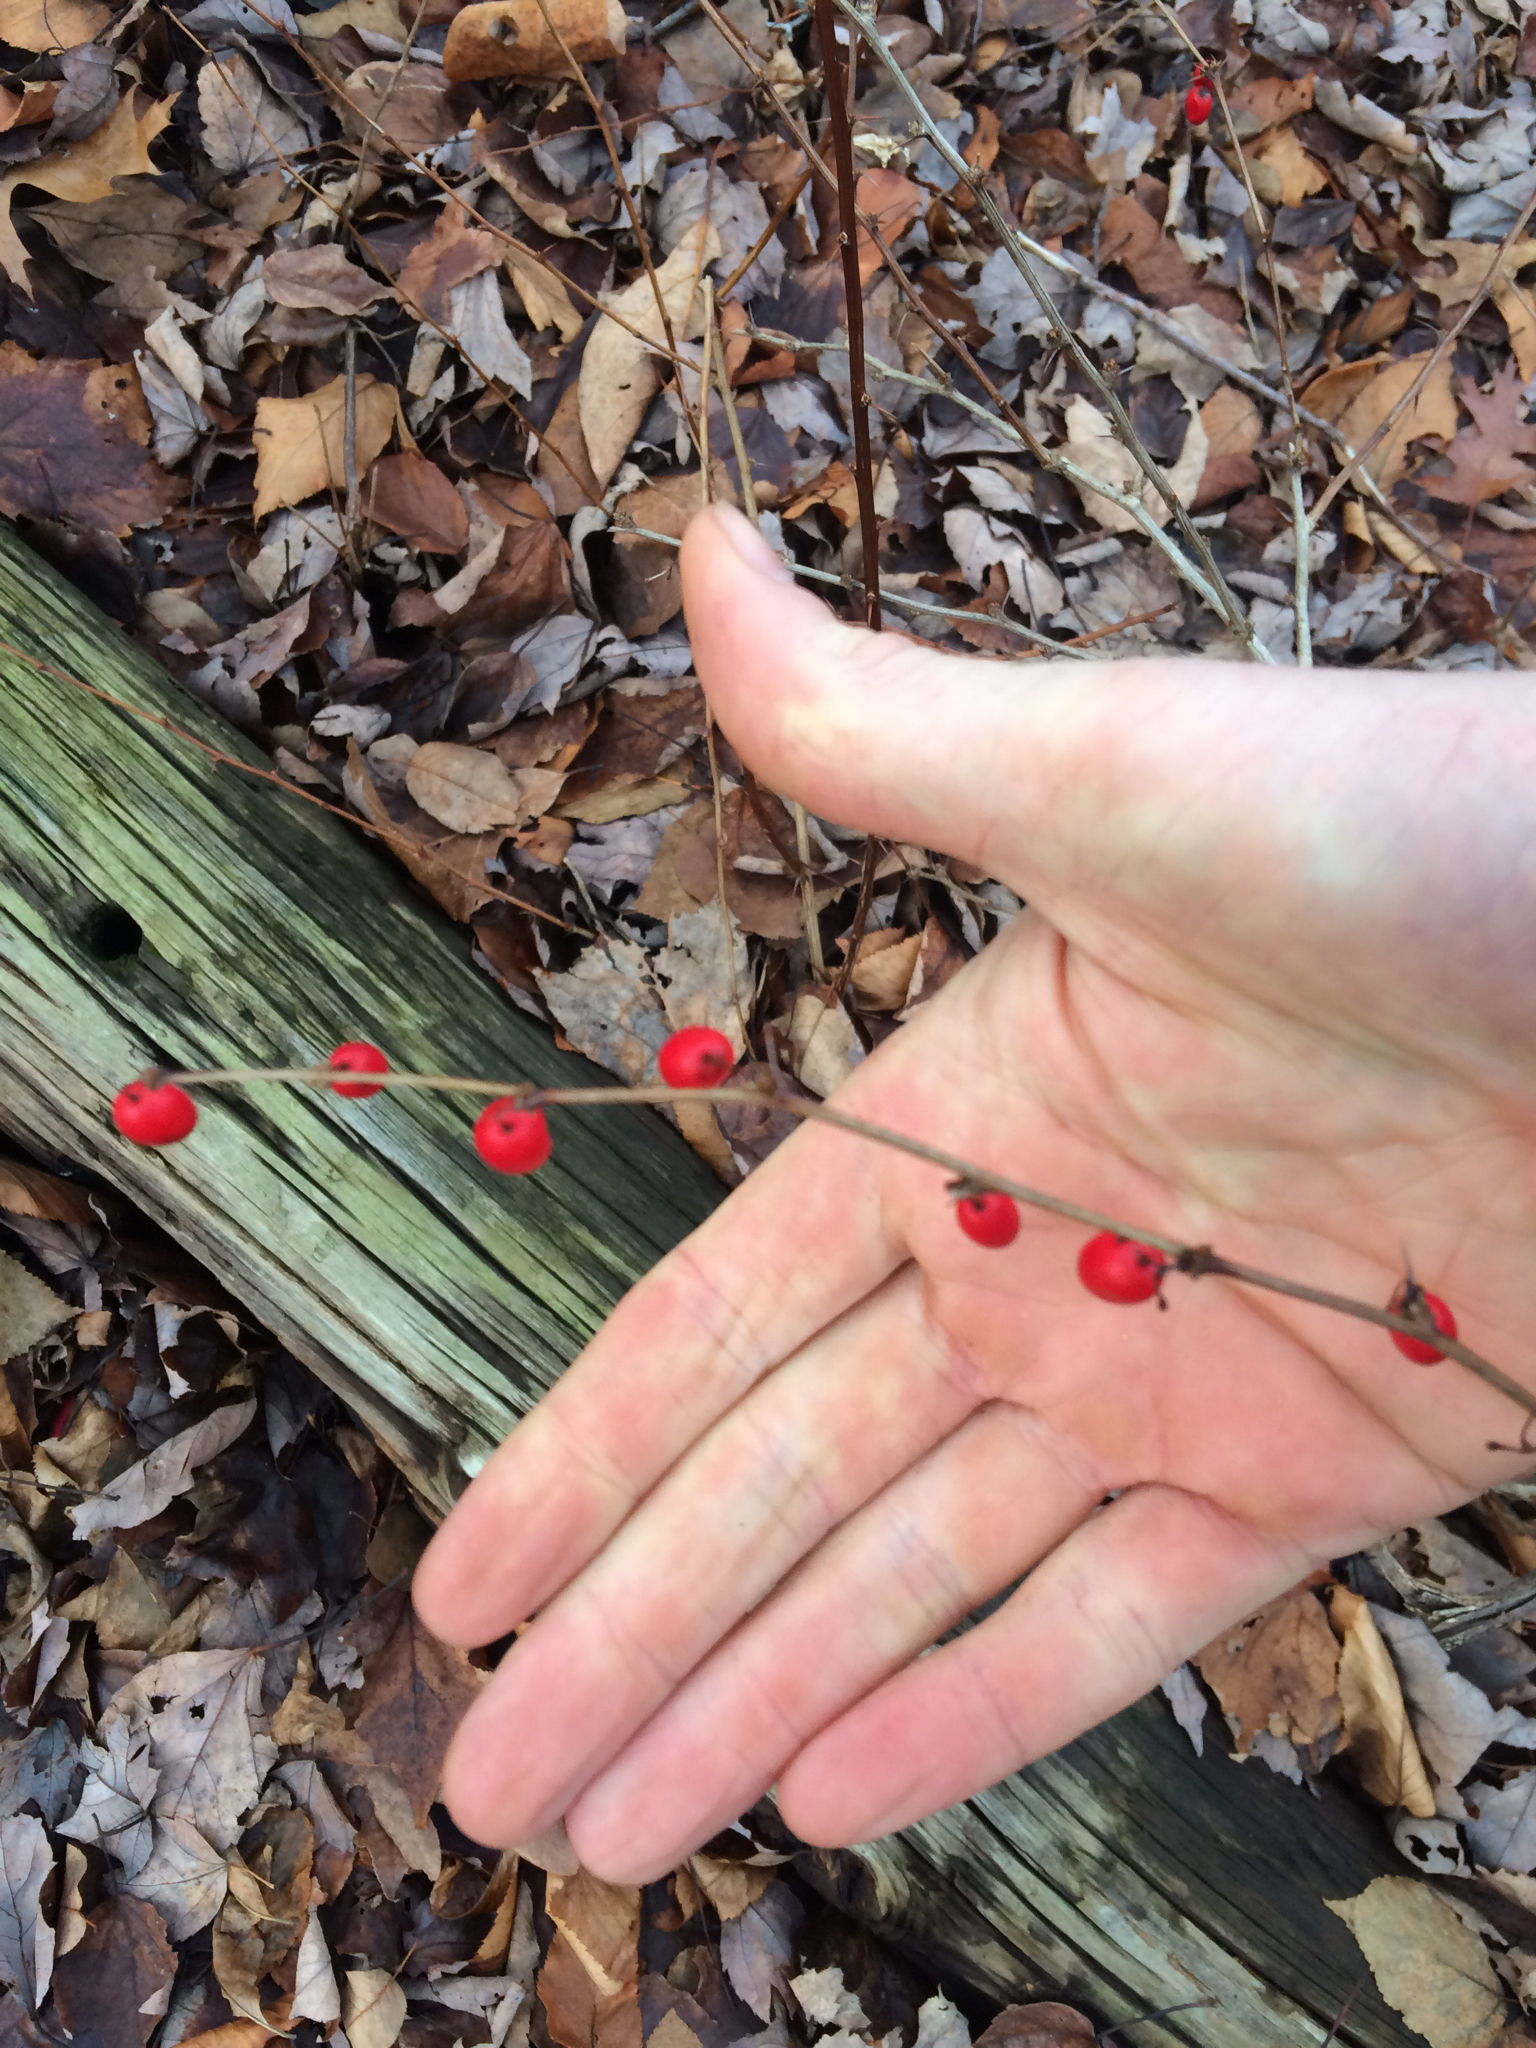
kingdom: Plantae
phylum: Tracheophyta
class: Magnoliopsida
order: Ranunculales
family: Berberidaceae
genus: Berberis
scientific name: Berberis thunbergii
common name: Japanese barberry
